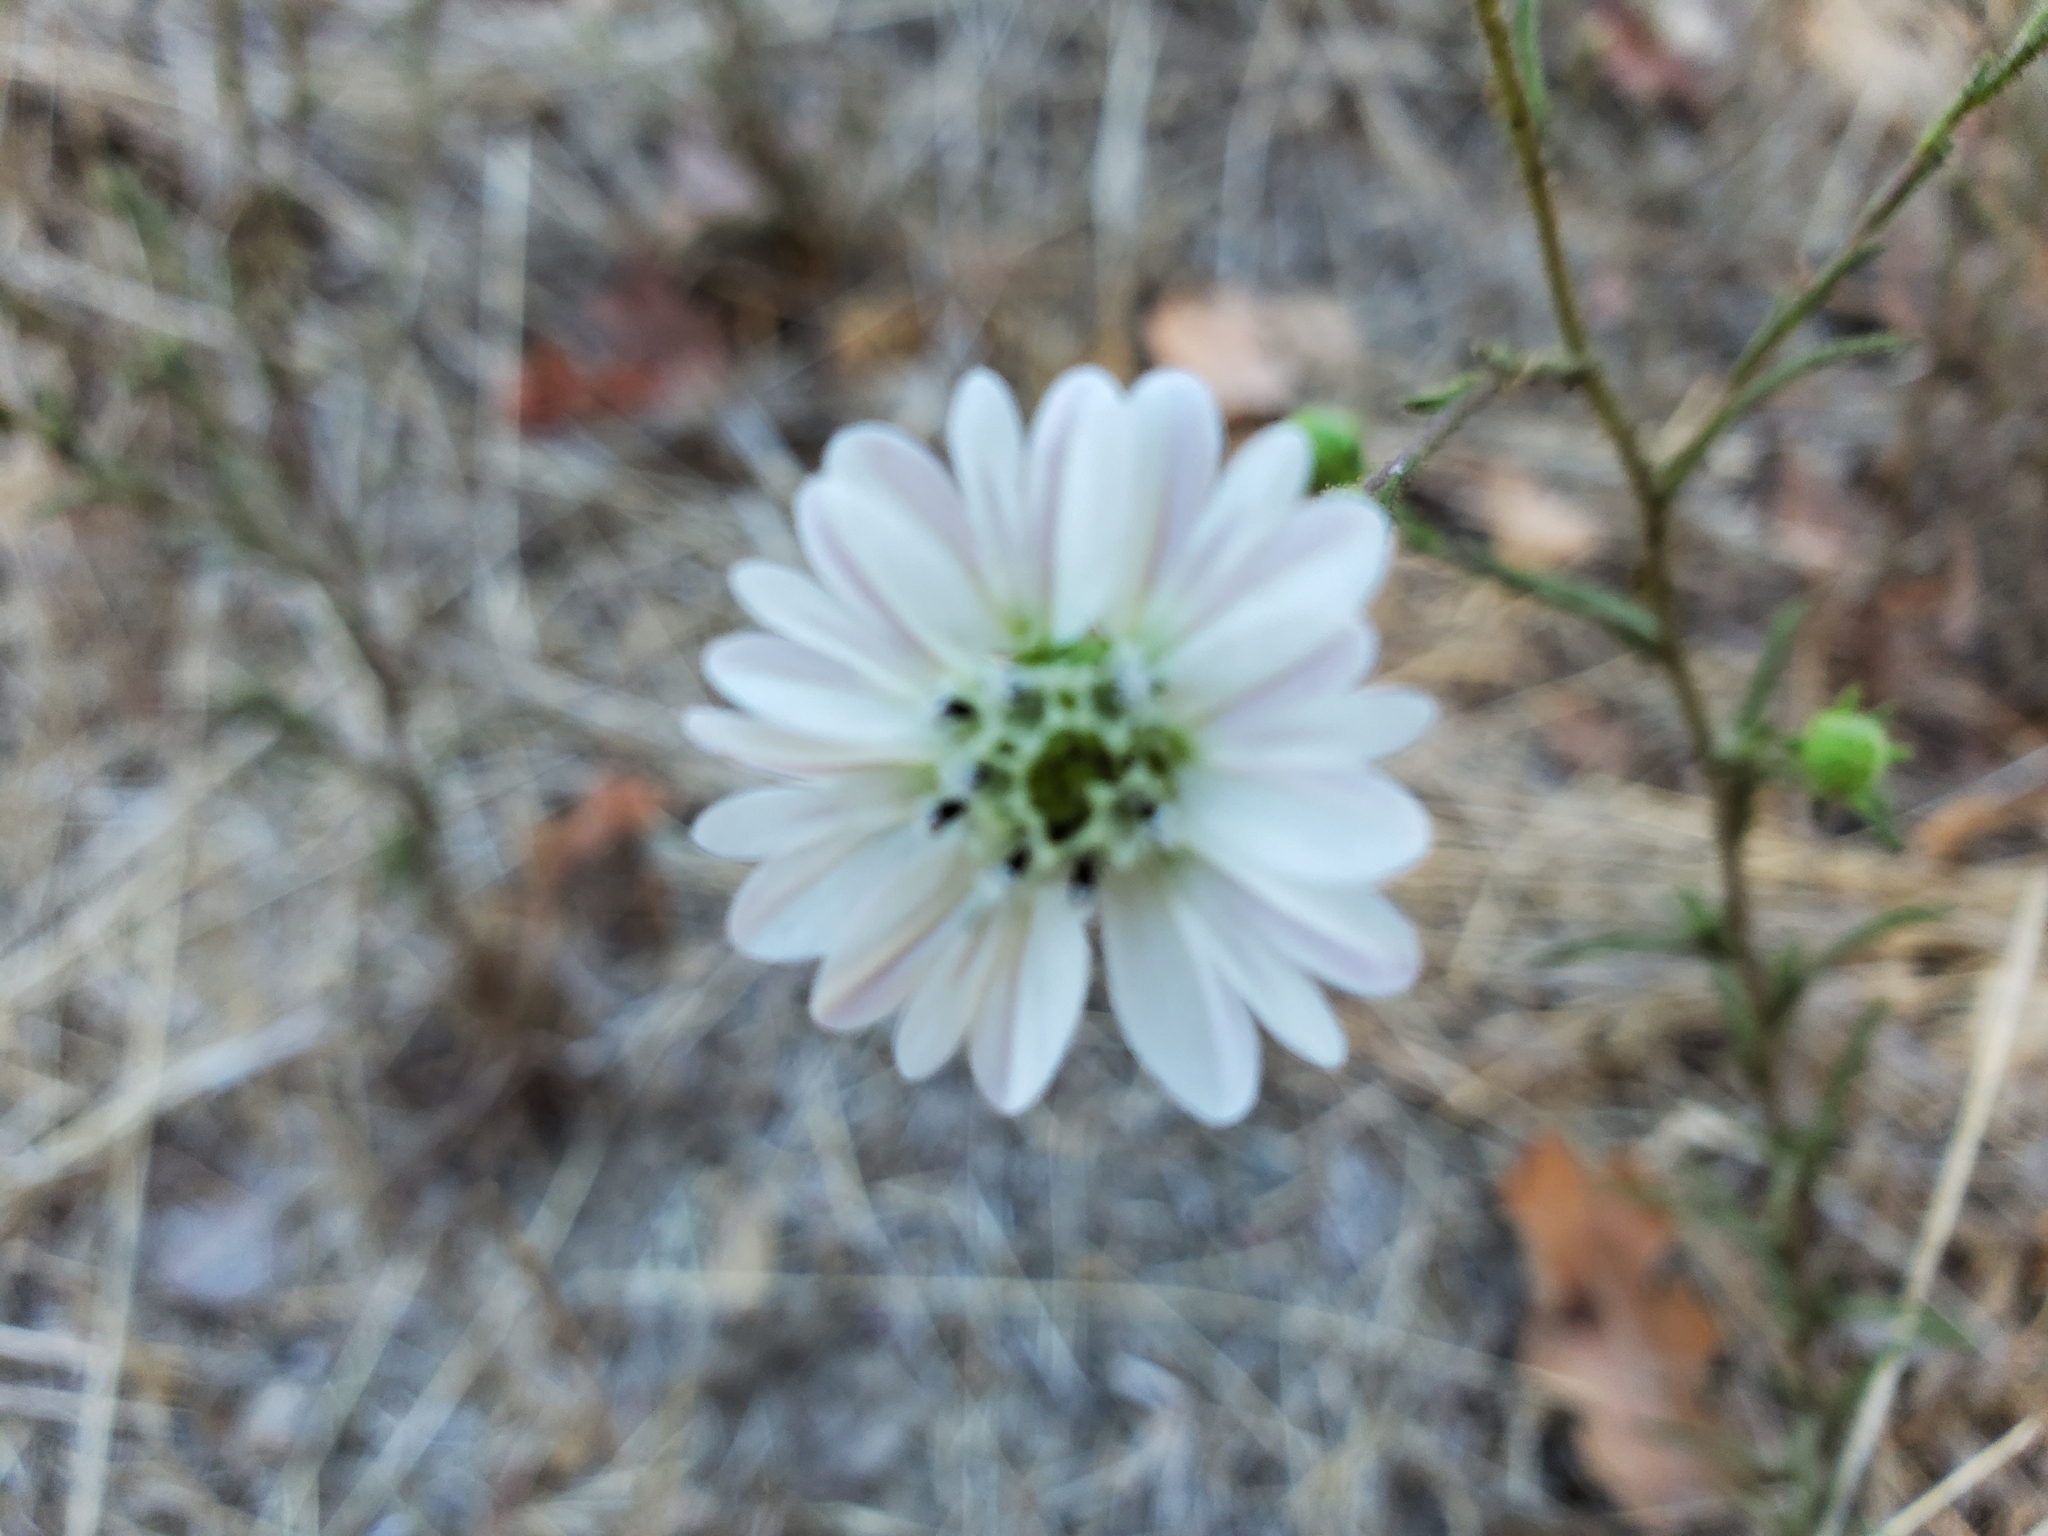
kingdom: Plantae
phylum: Tracheophyta
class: Magnoliopsida
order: Asterales
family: Asteraceae
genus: Hemizonia
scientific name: Hemizonia congesta
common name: Hayfield tarweed
